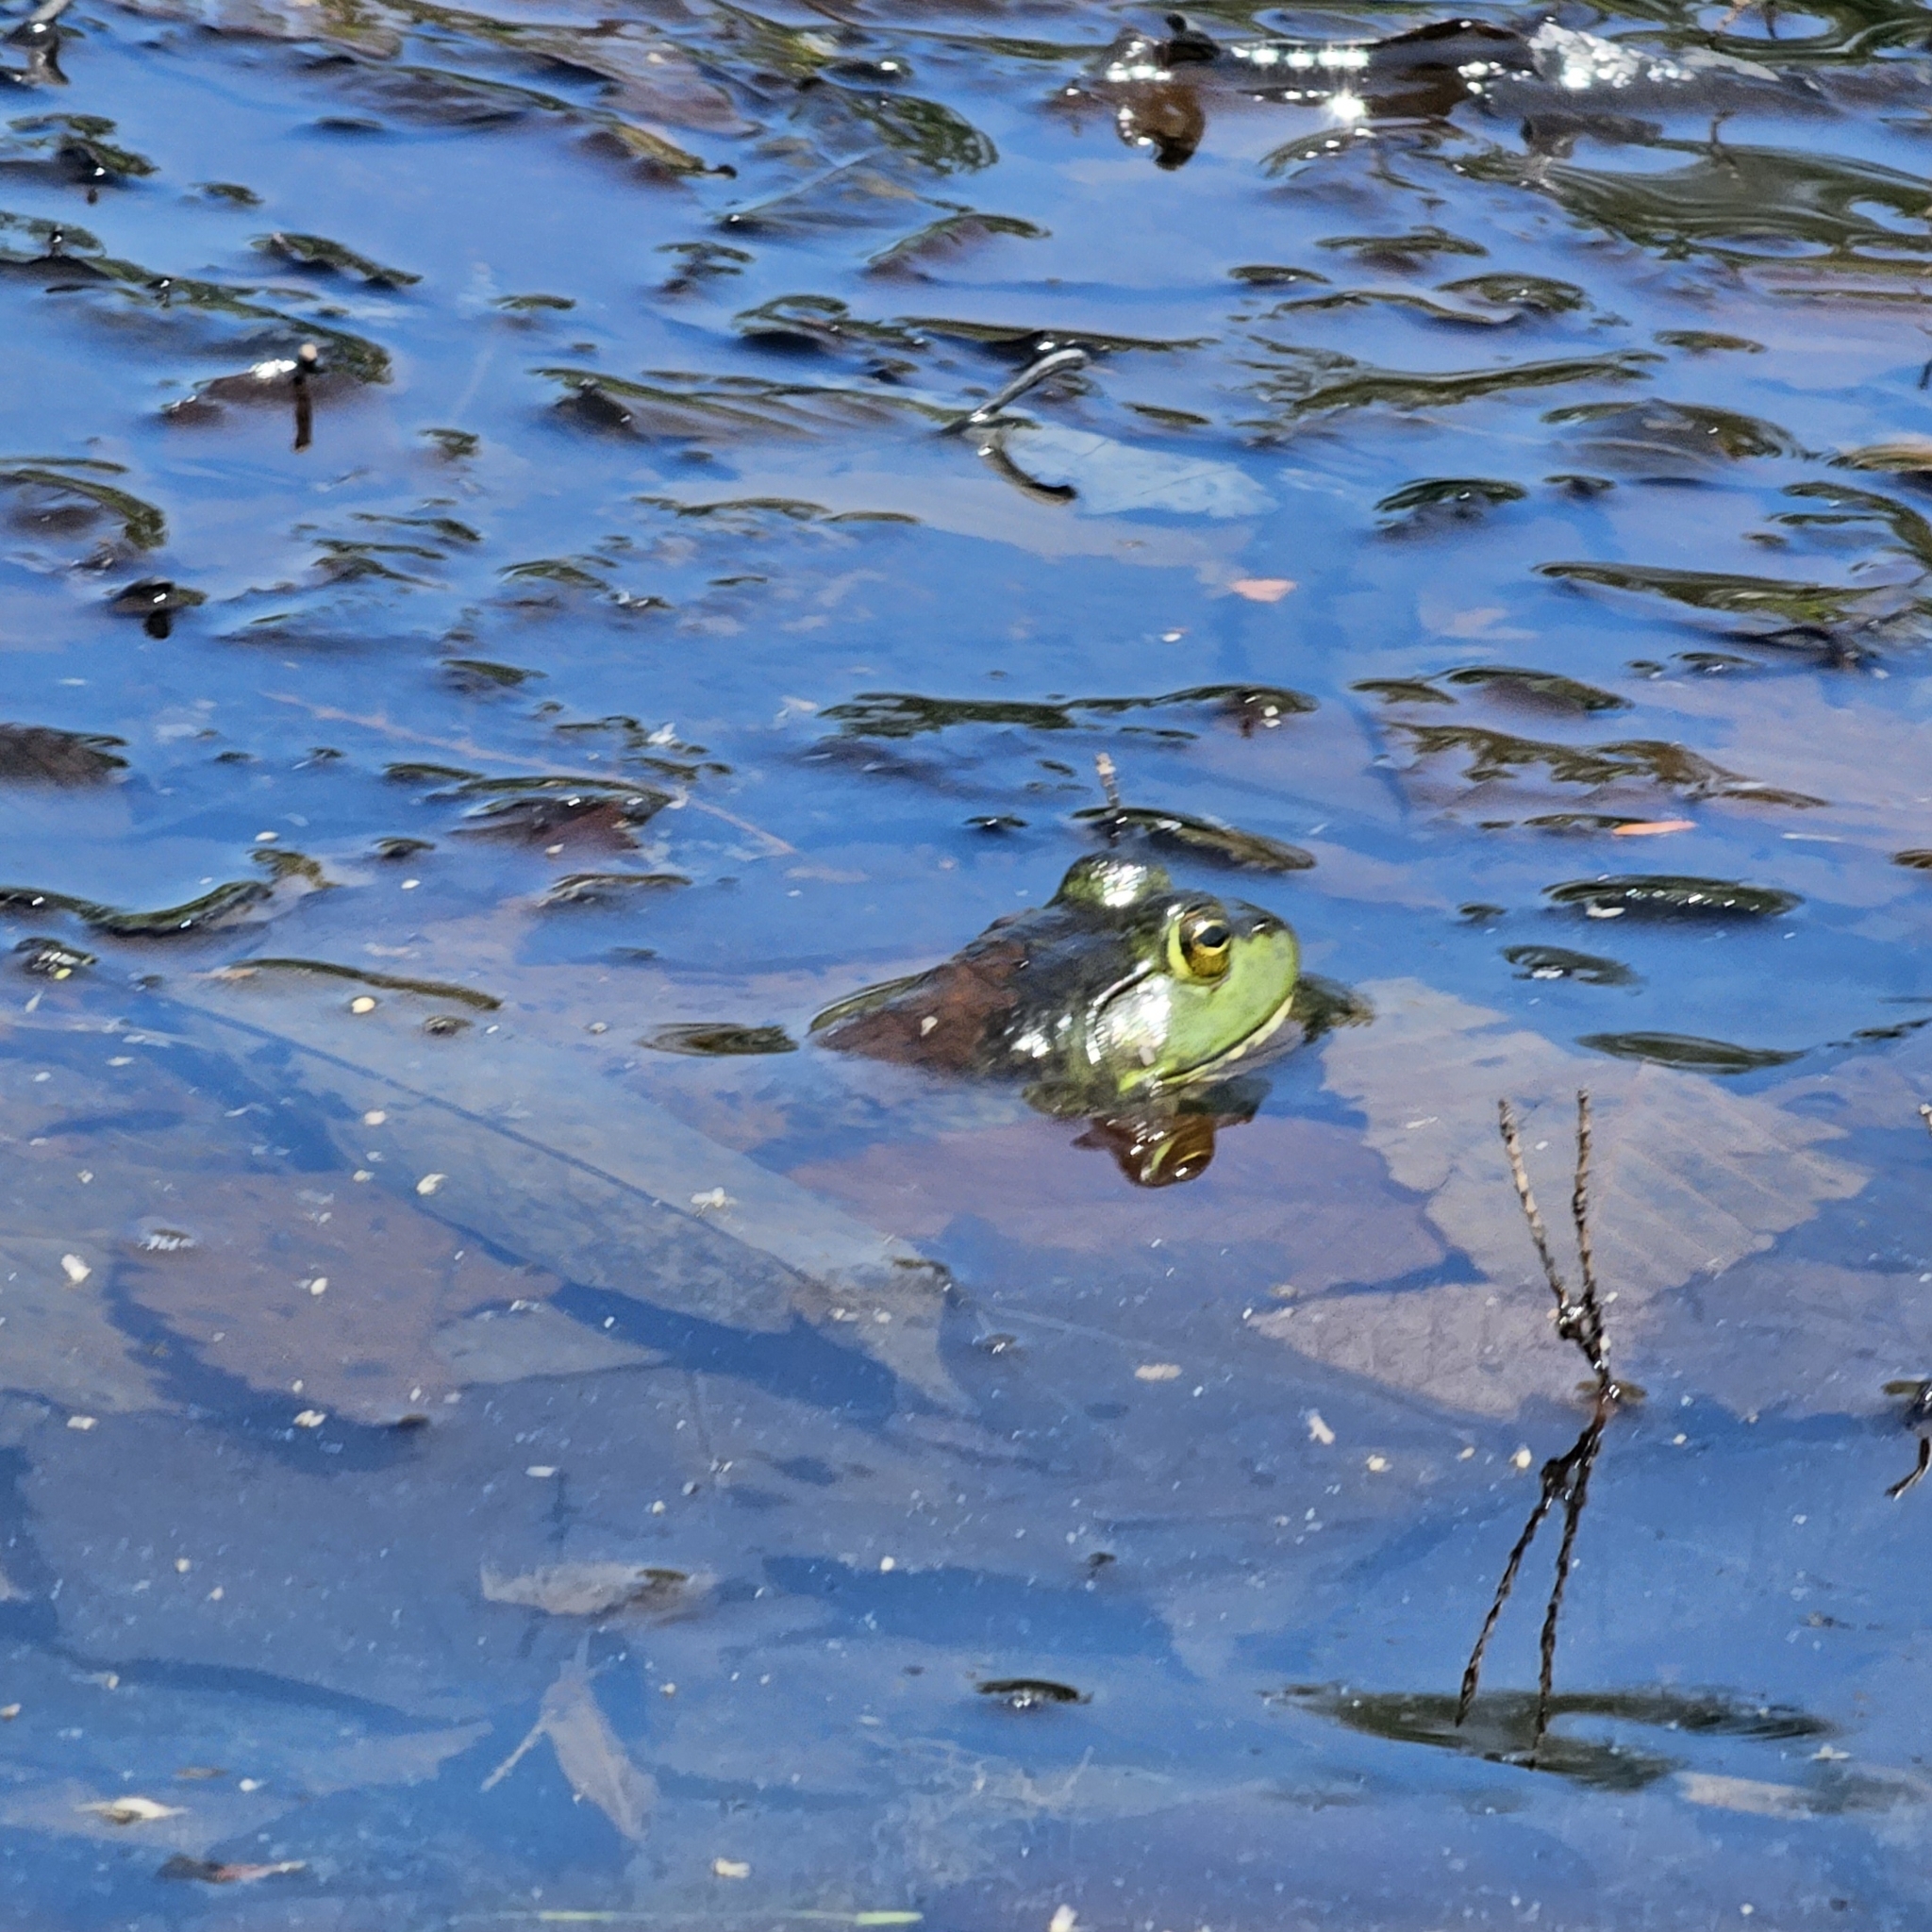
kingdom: Animalia
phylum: Chordata
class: Amphibia
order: Anura
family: Ranidae
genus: Lithobates
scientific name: Lithobates catesbeianus
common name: American bullfrog
